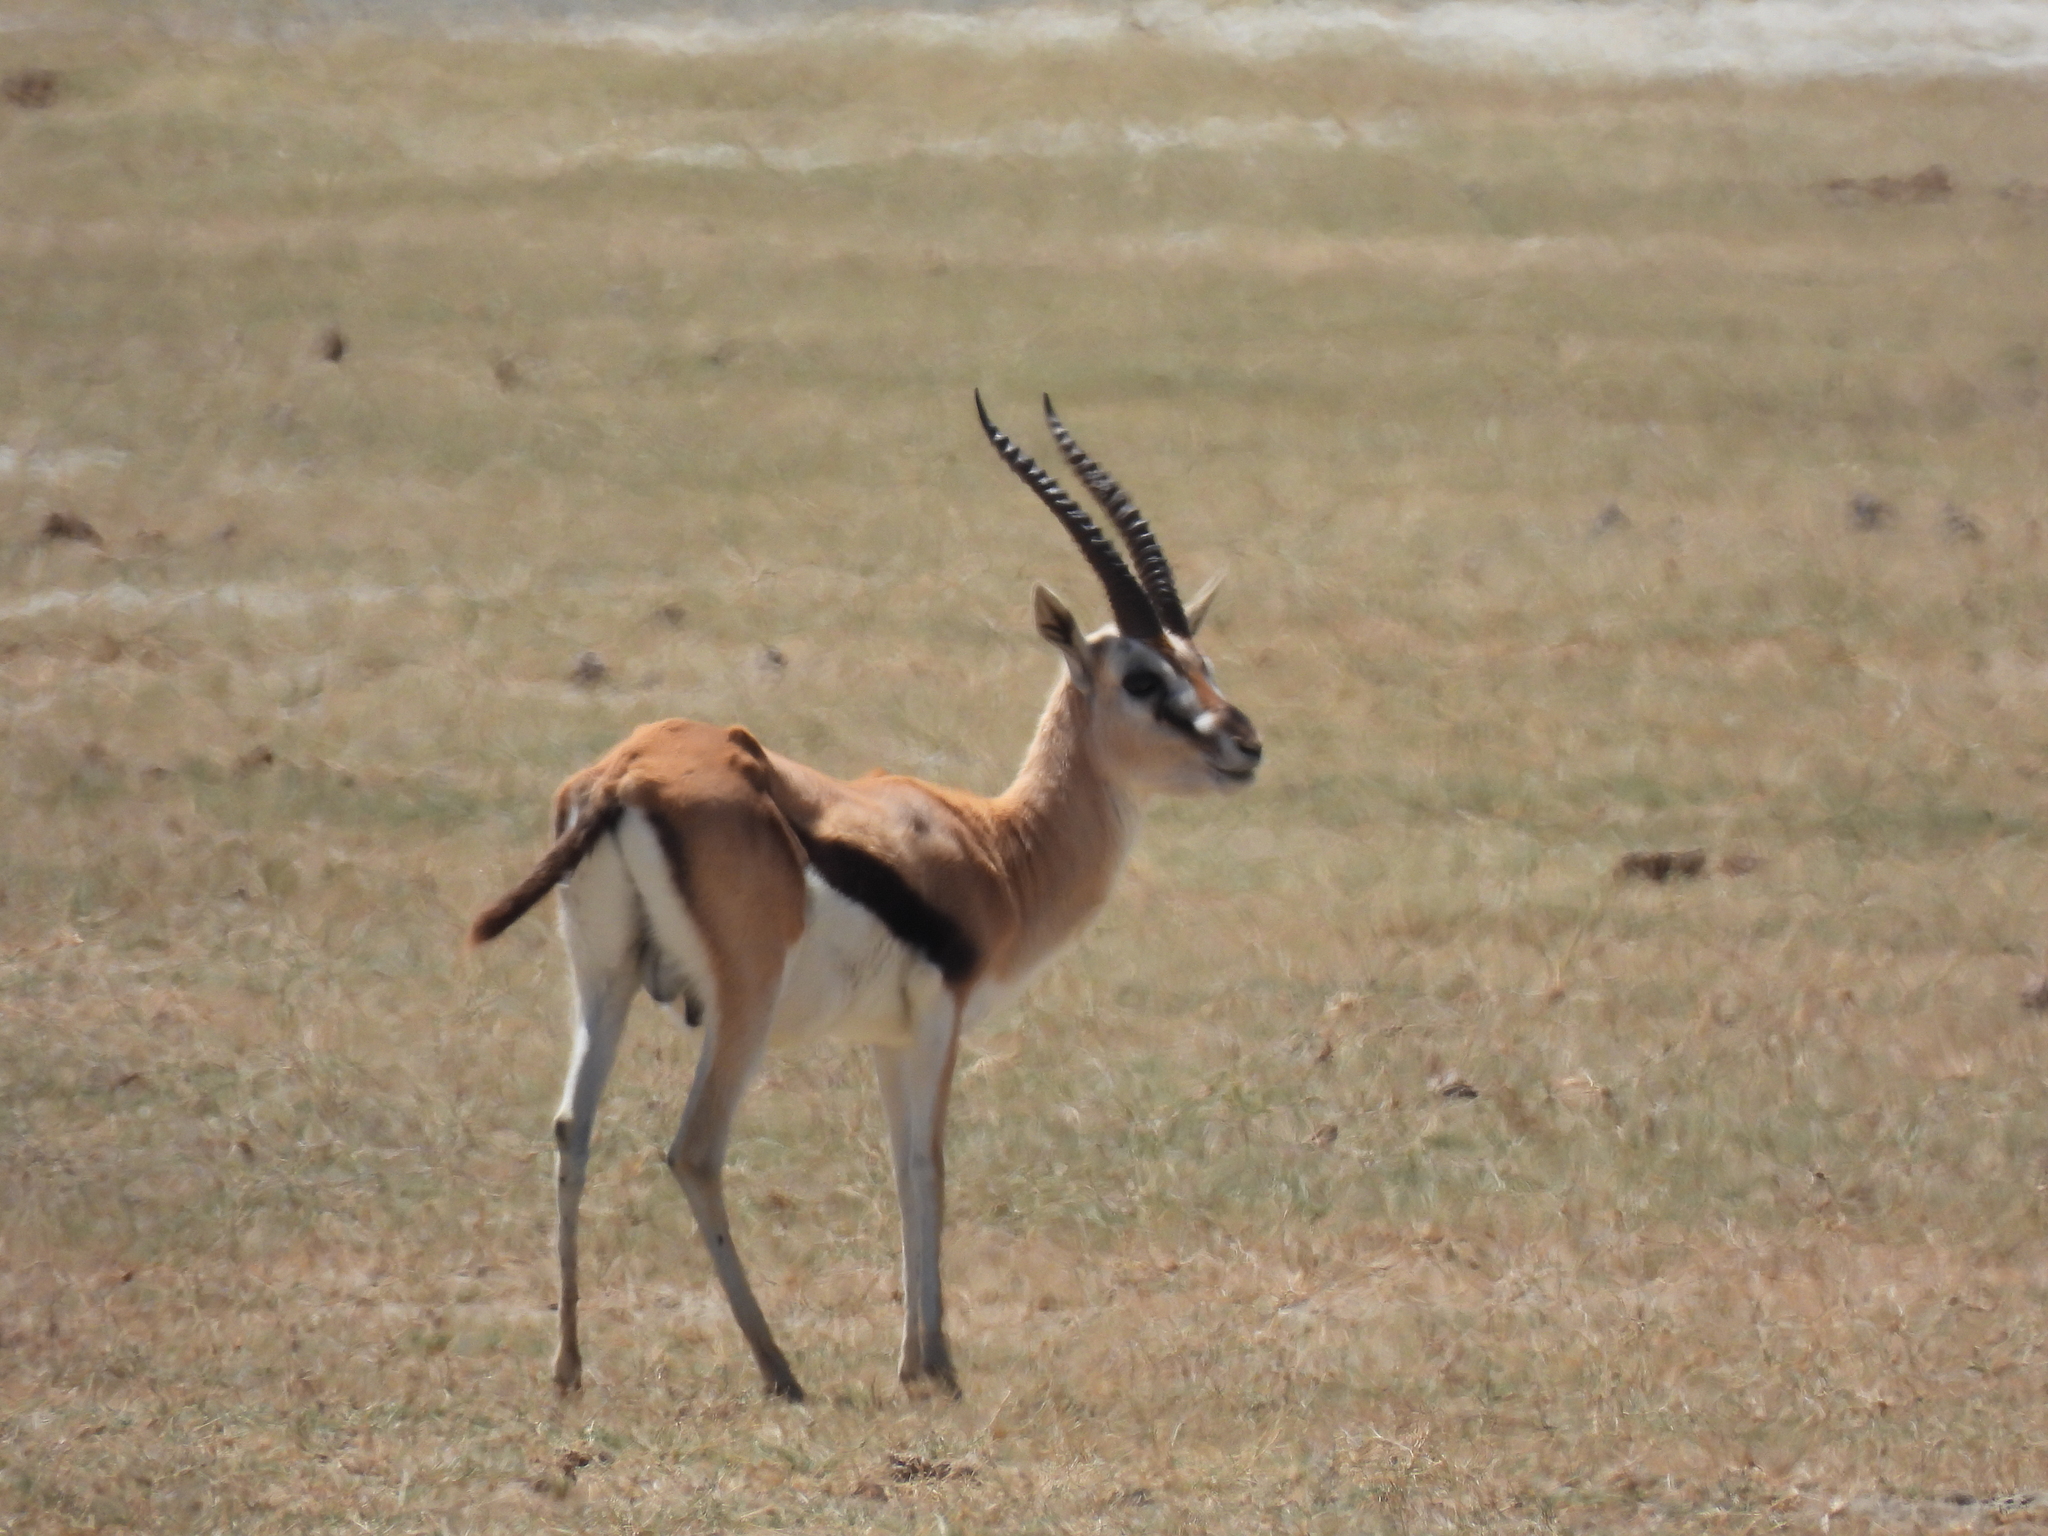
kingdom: Animalia
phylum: Chordata
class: Mammalia
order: Artiodactyla
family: Bovidae
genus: Eudorcas
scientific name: Eudorcas thomsonii
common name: Thomson's gazelle
